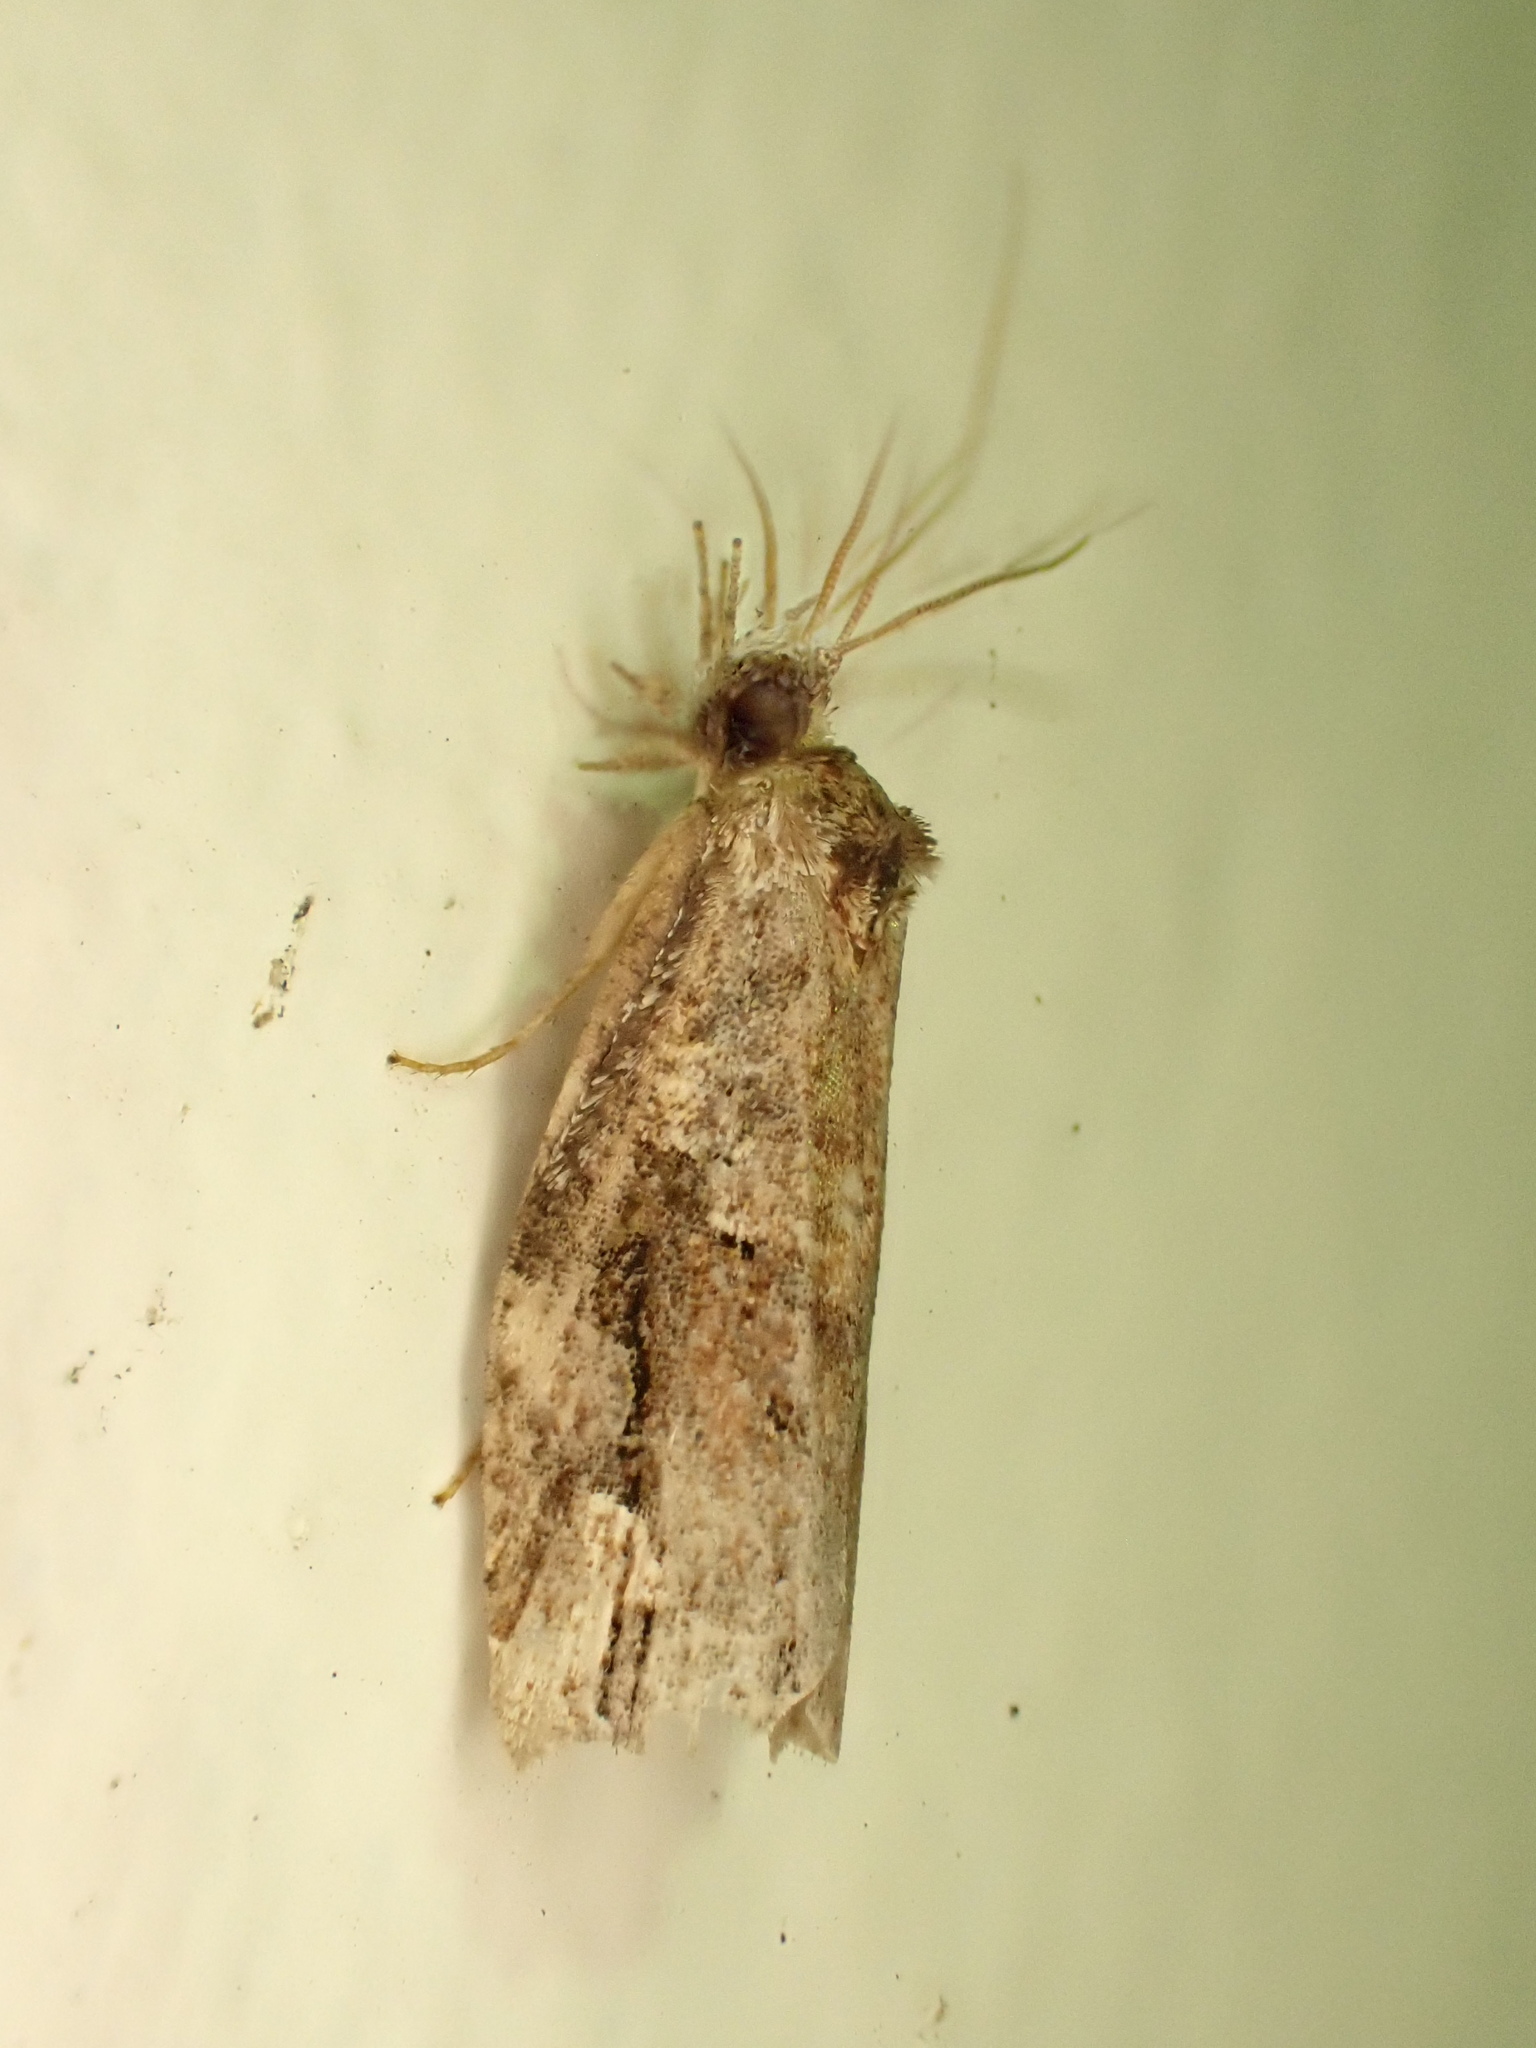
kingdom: Animalia
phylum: Arthropoda
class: Insecta
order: Lepidoptera
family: Tortricidae
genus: Epalxiphora
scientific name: Epalxiphora axenana
